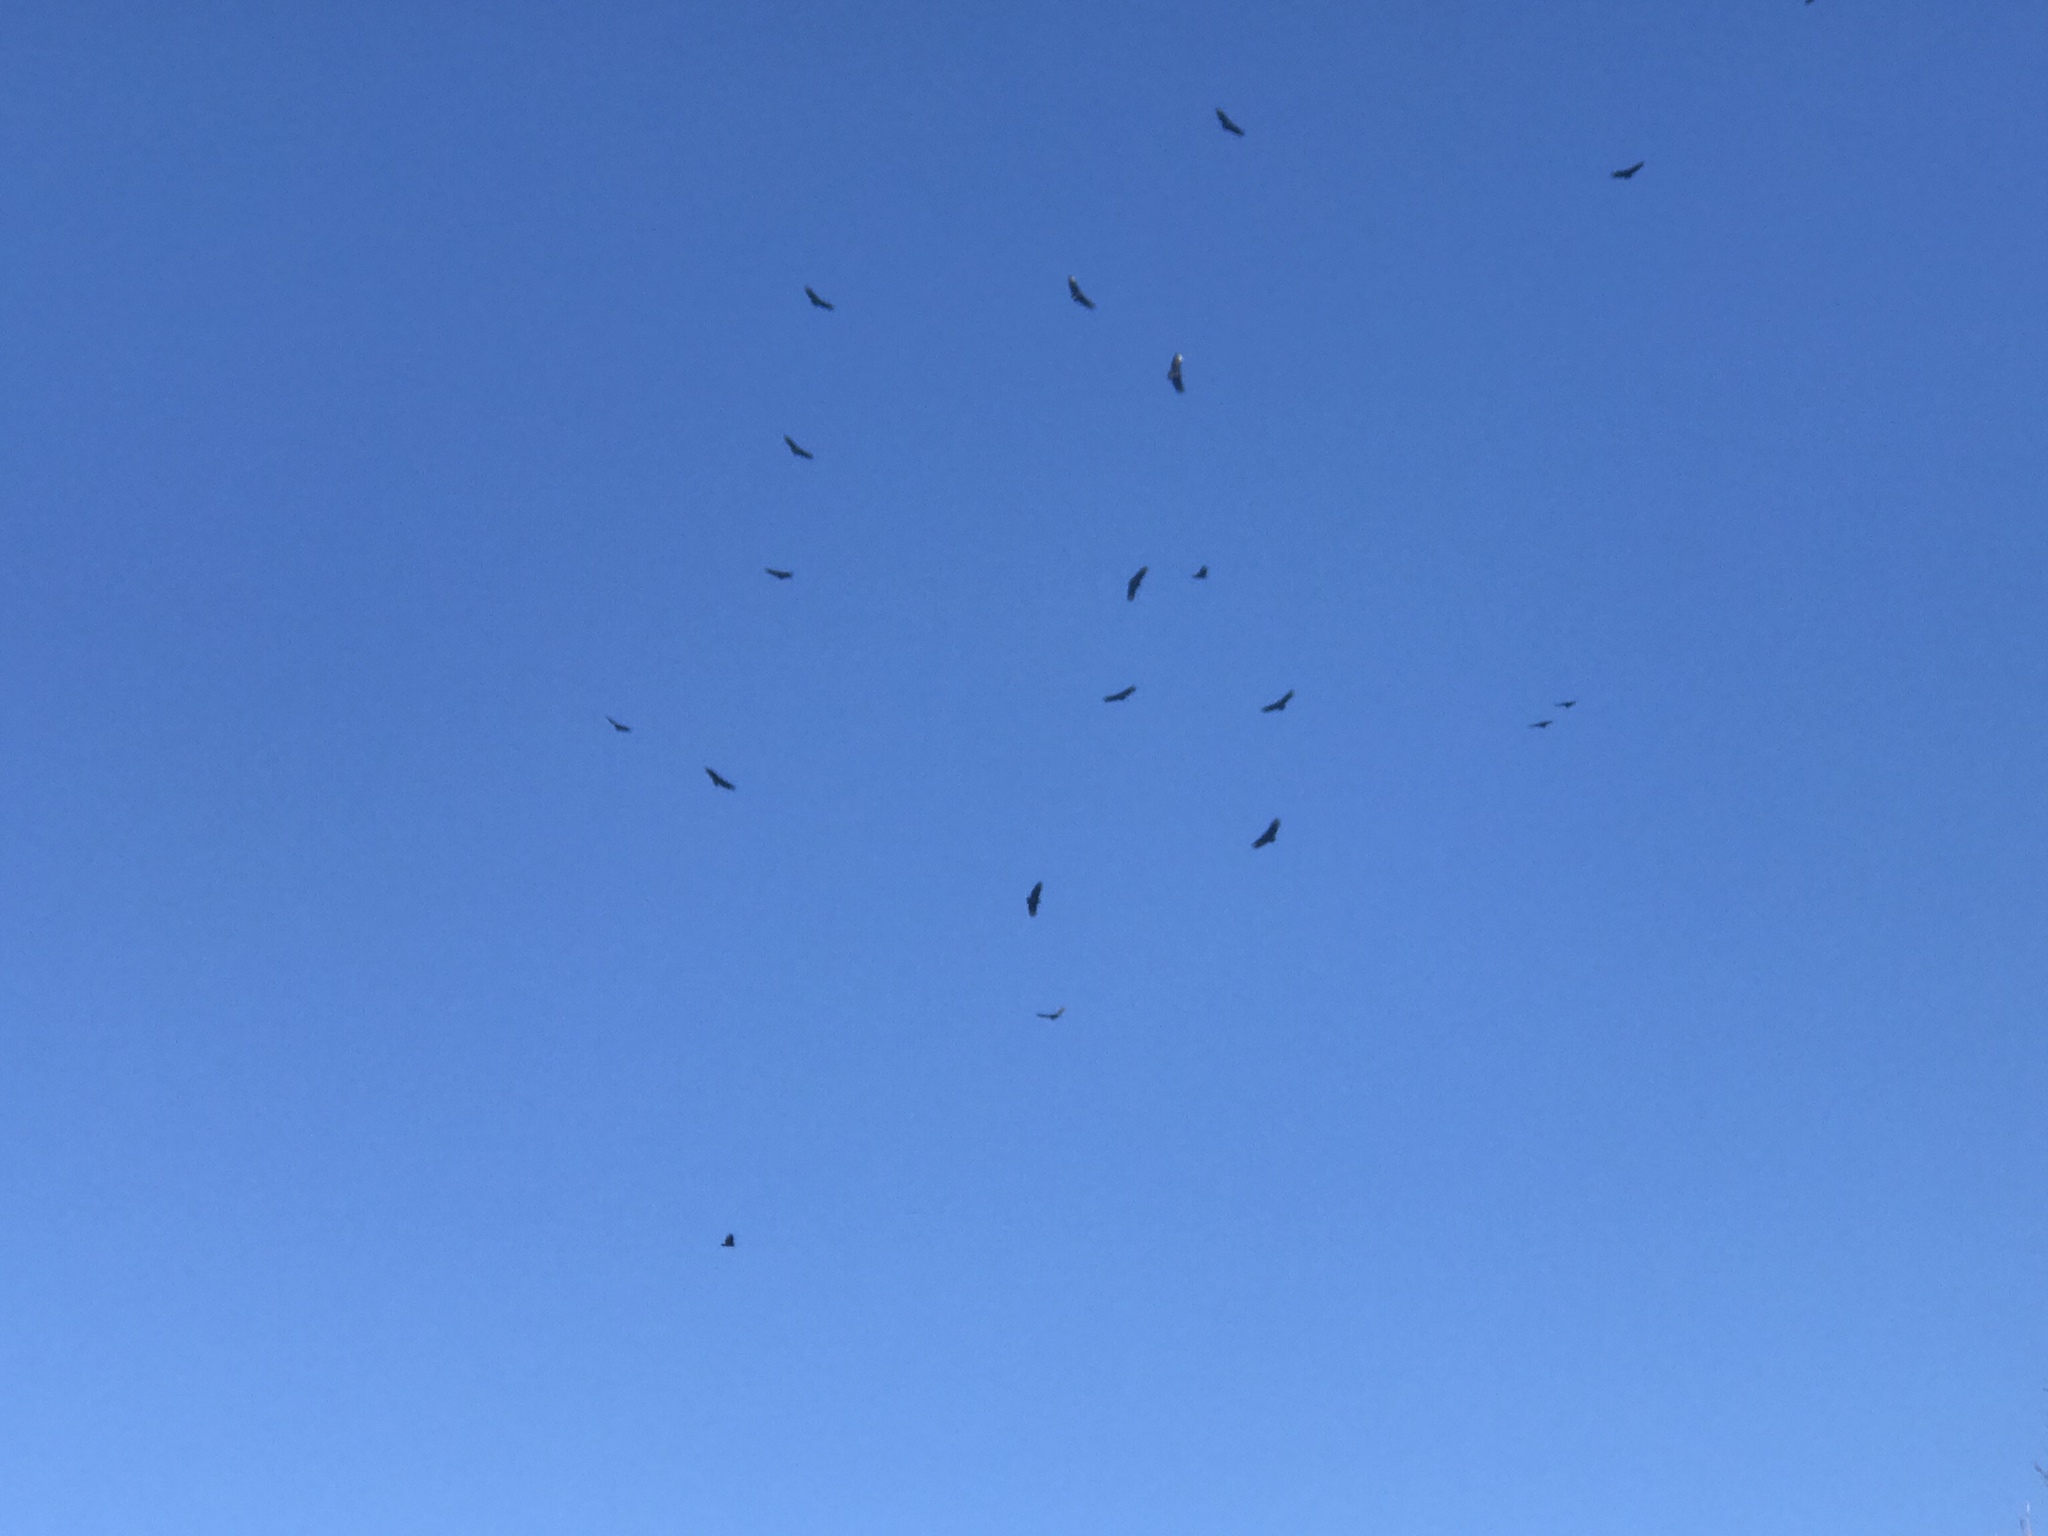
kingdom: Animalia
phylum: Chordata
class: Aves
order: Accipitriformes
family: Cathartidae
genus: Coragyps
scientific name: Coragyps atratus
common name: Black vulture
